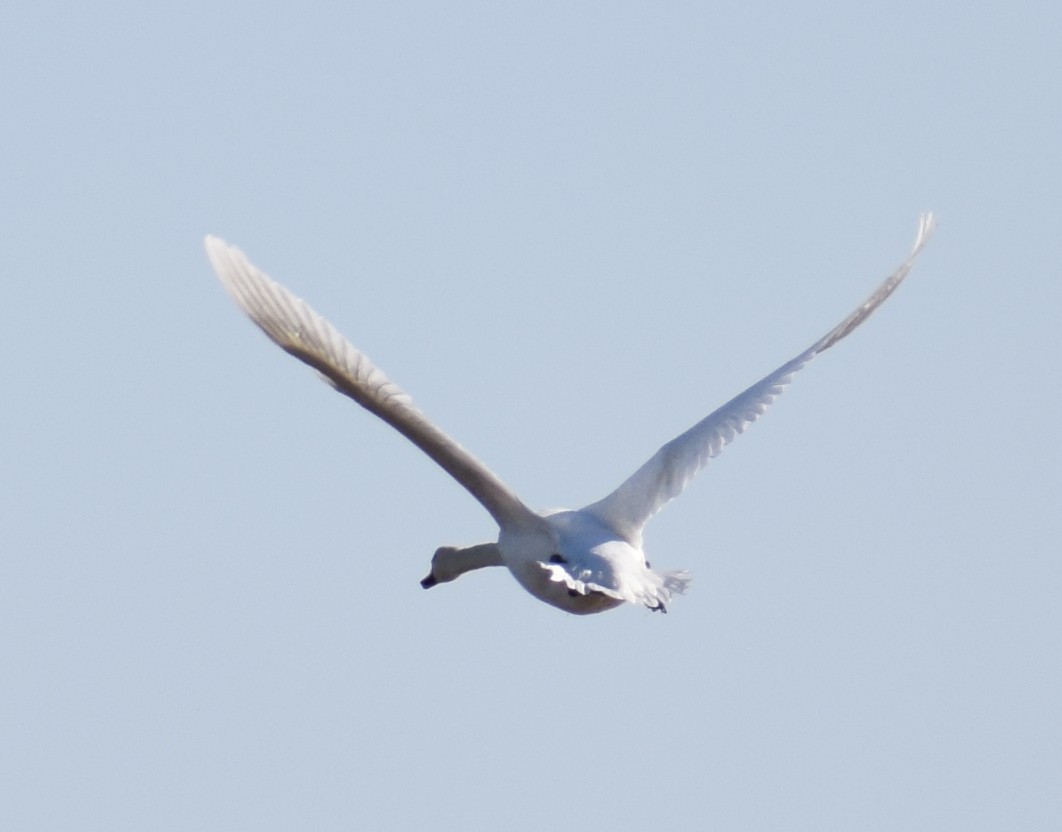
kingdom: Animalia
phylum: Chordata
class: Aves
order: Anseriformes
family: Anatidae
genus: Cygnus
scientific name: Cygnus olor
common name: Mute swan
